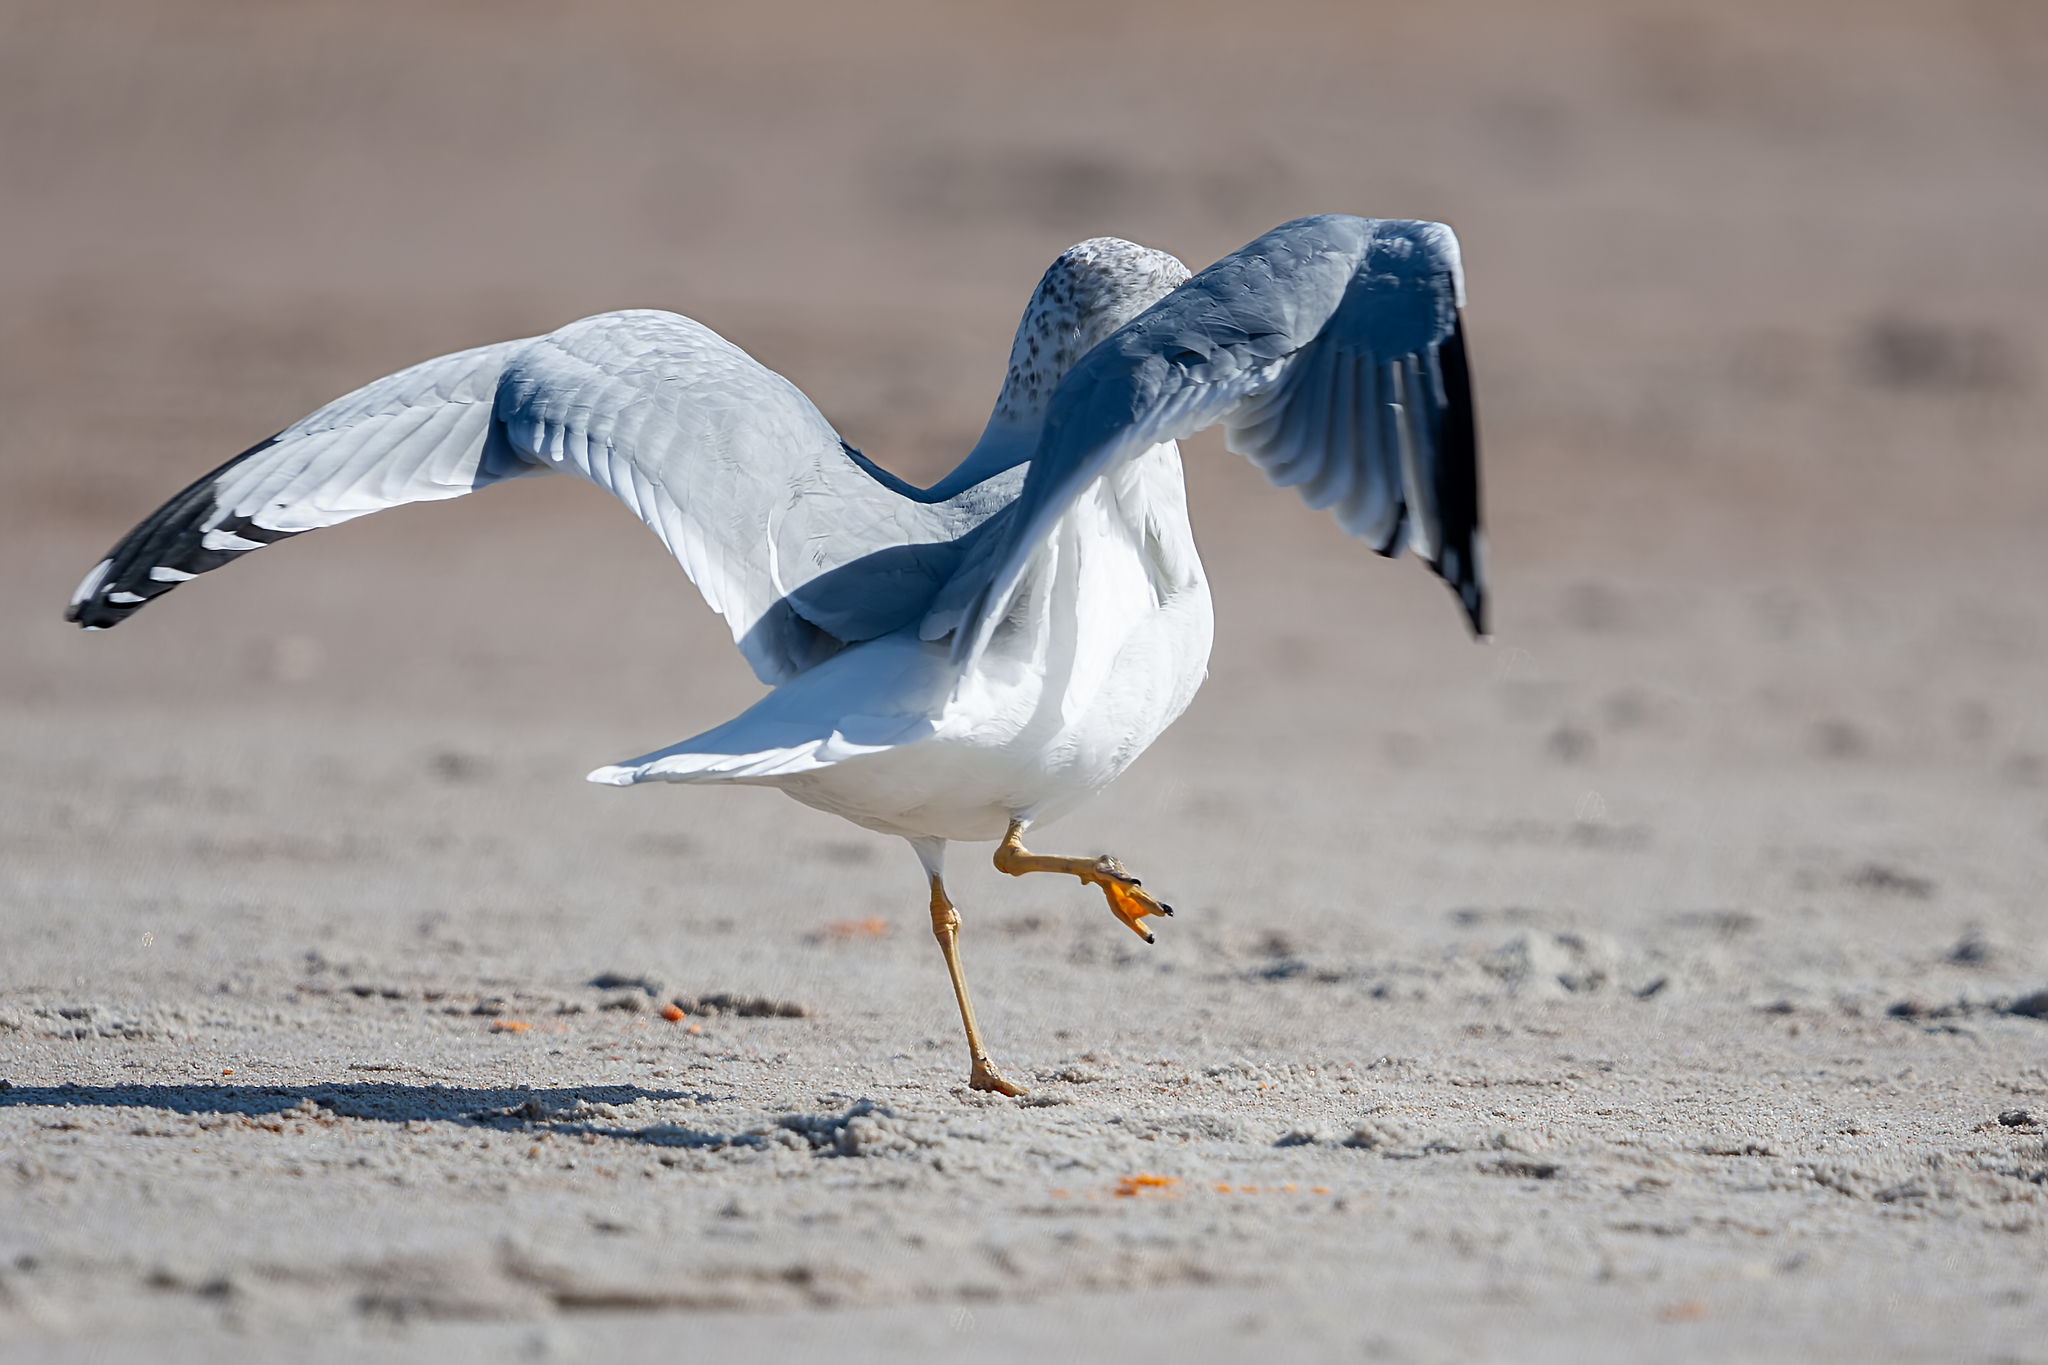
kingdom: Animalia
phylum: Chordata
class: Aves
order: Charadriiformes
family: Laridae
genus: Larus
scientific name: Larus delawarensis
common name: Ring-billed gull
